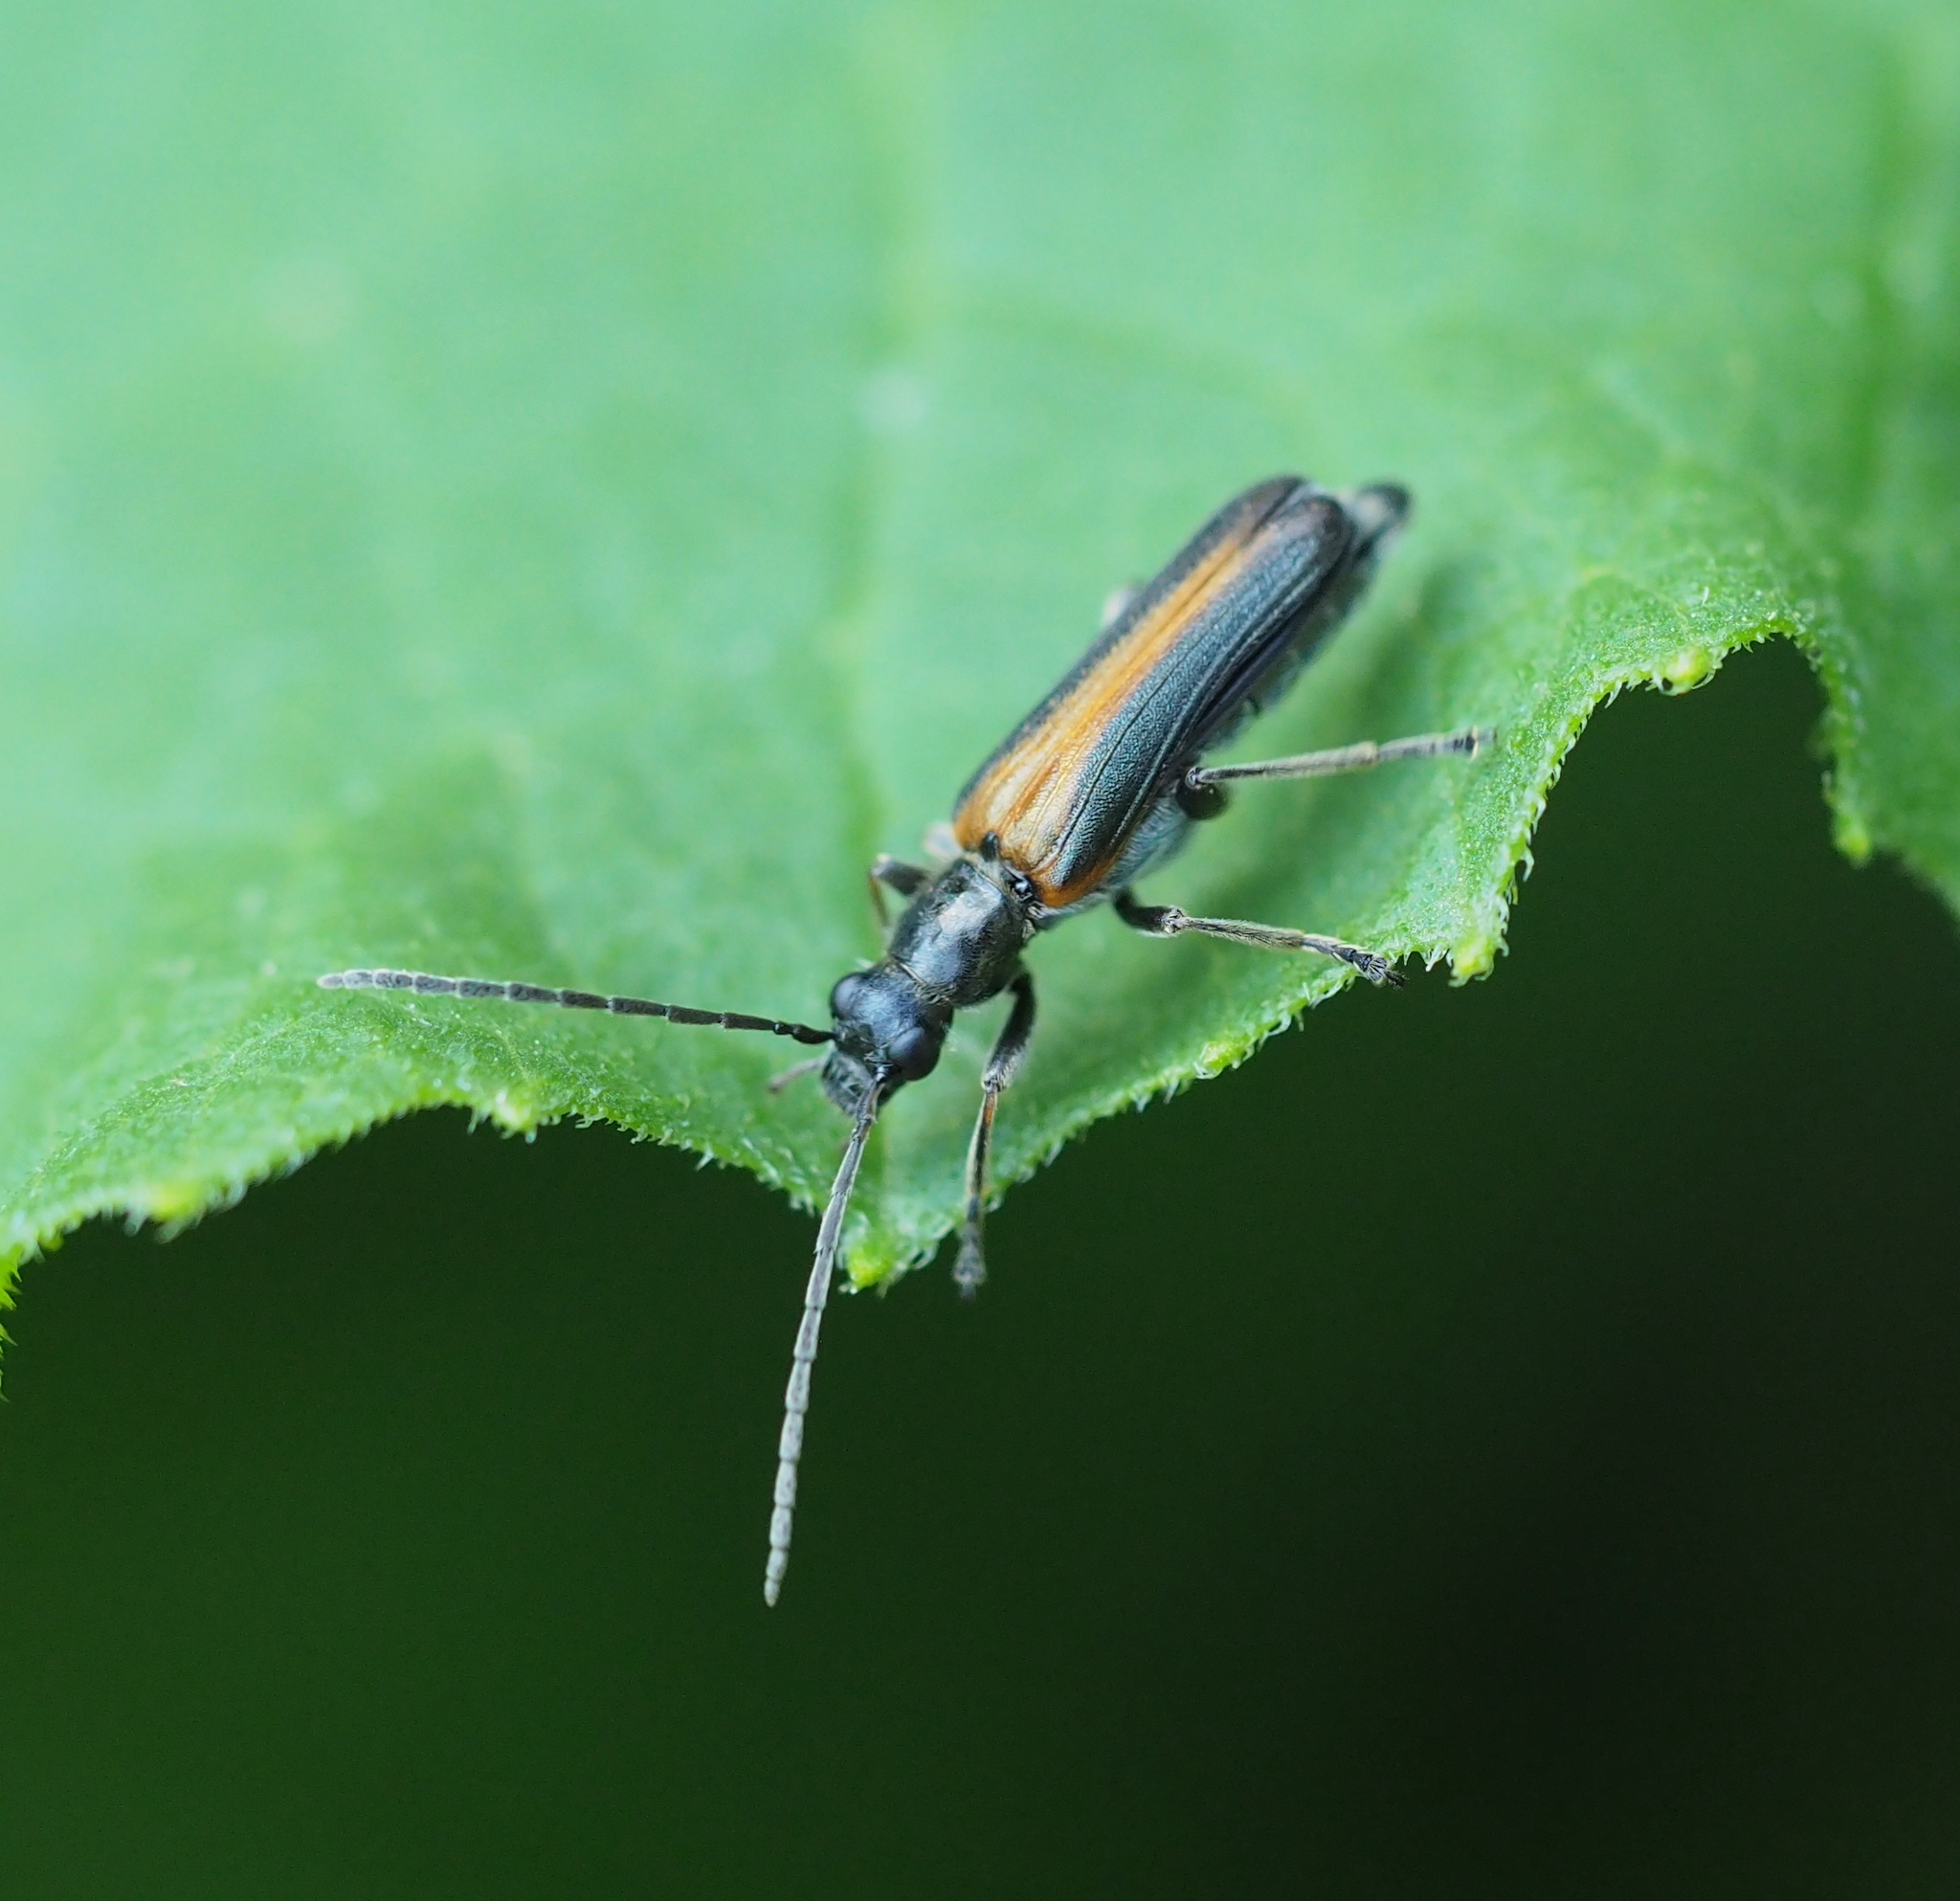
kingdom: Animalia
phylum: Arthropoda
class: Insecta
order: Coleoptera
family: Oedemeridae
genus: Anogcodes
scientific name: Anogcodes rufiventris
